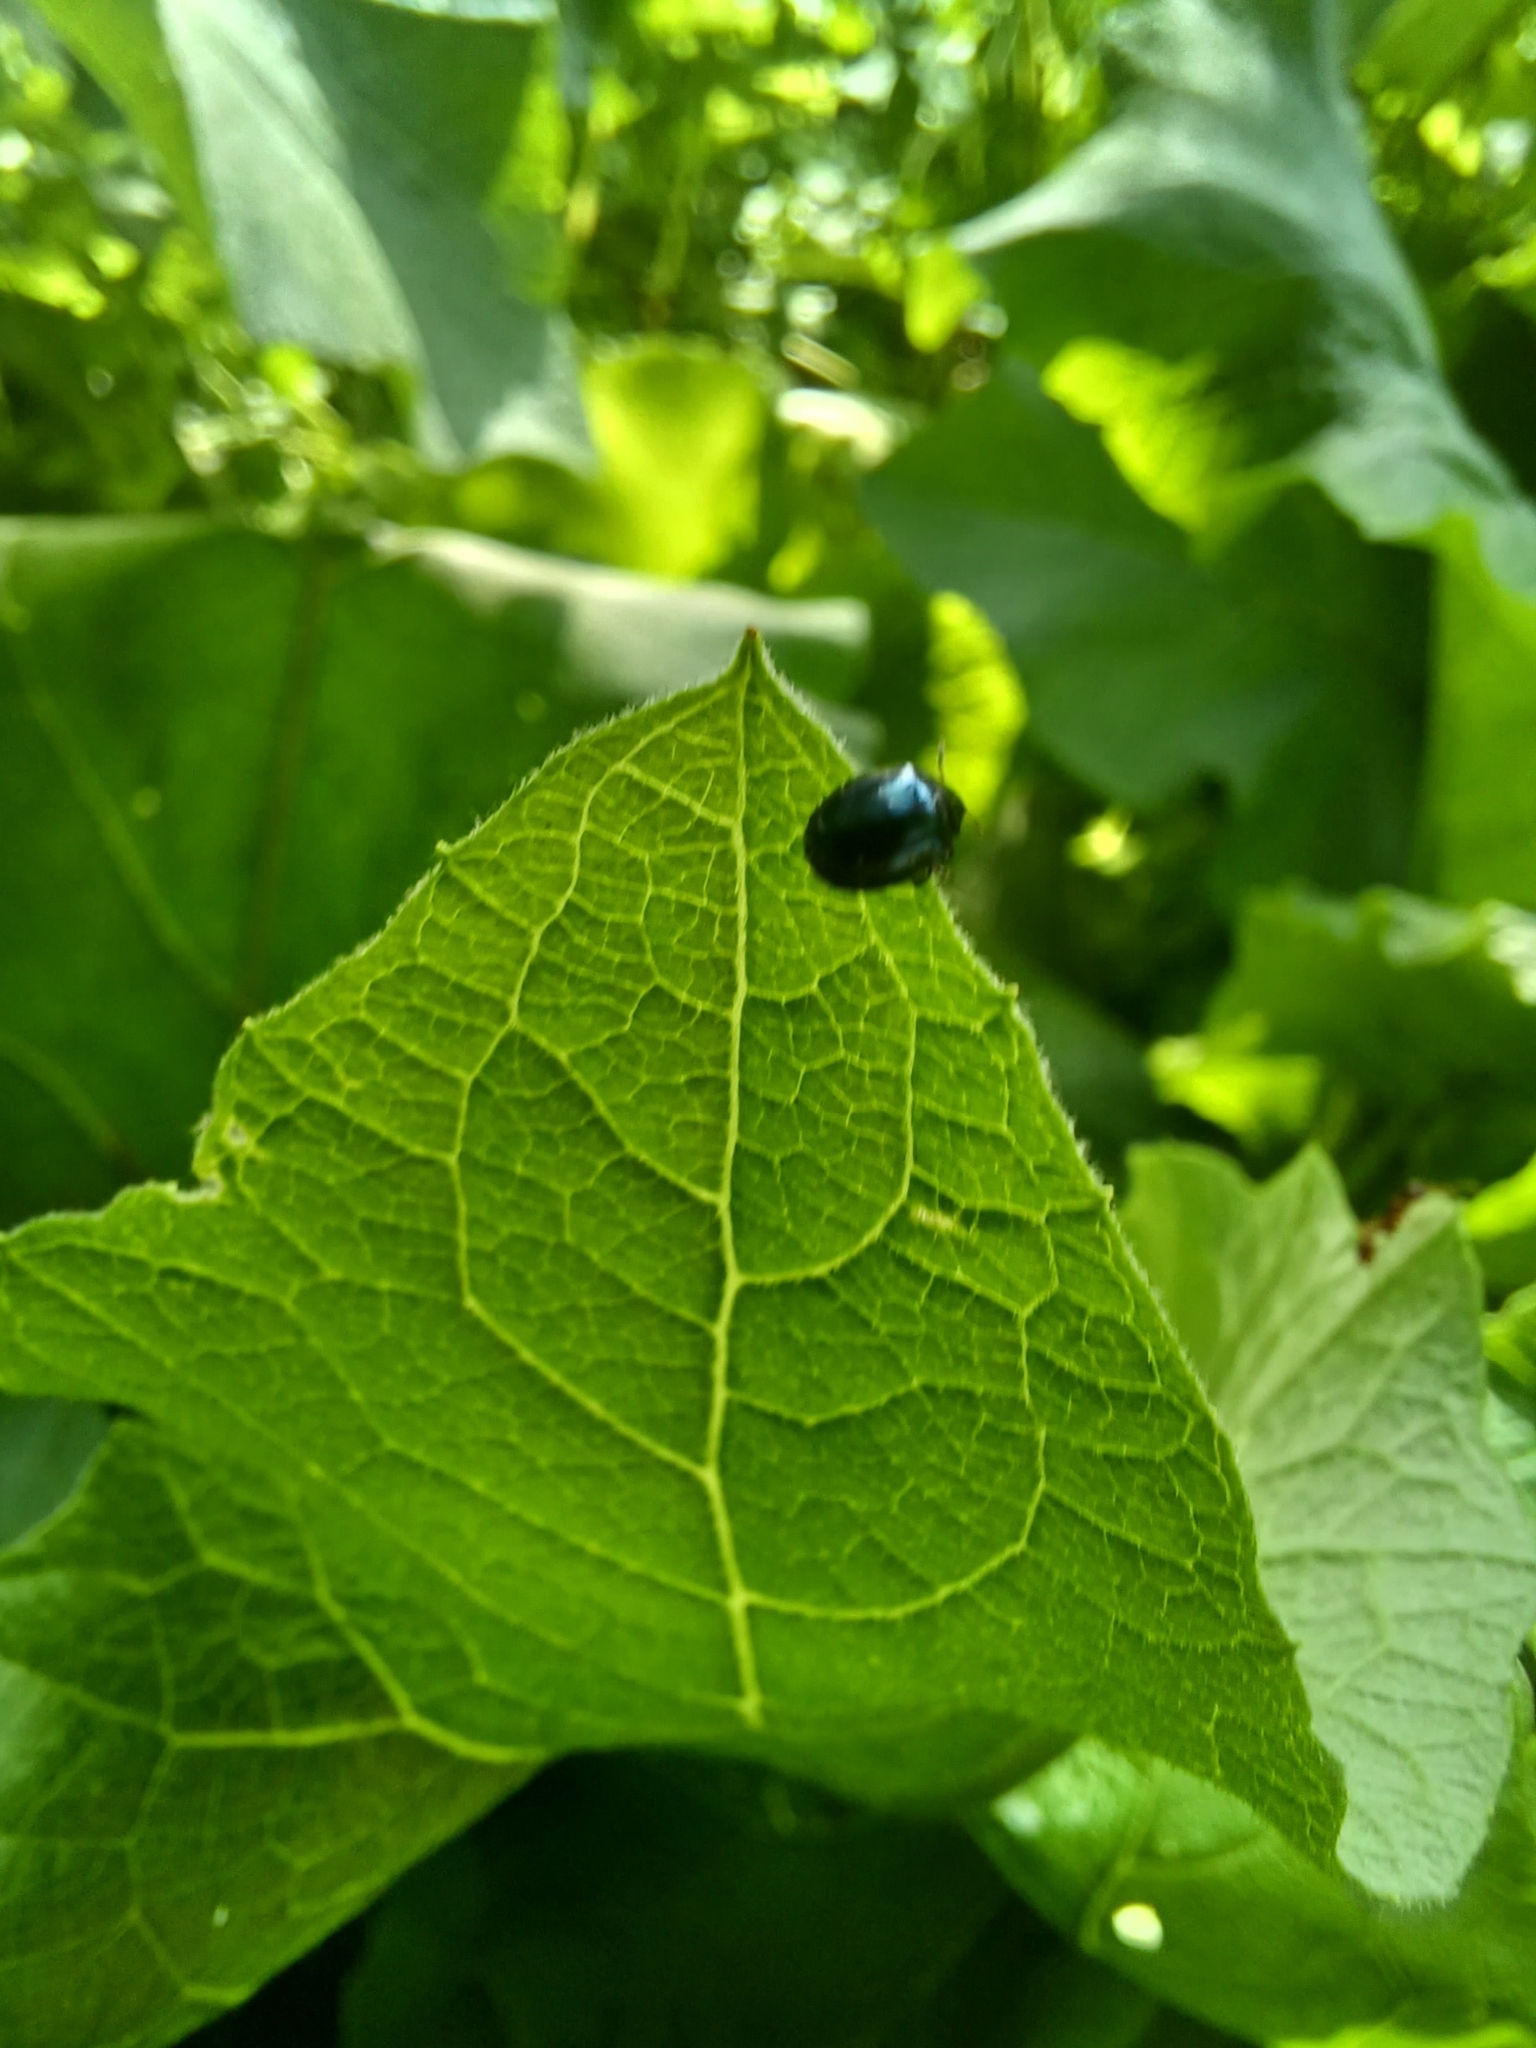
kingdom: Animalia
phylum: Arthropoda
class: Insecta
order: Coleoptera
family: Chrysomelidae
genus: Plagiodera
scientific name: Plagiodera versicolora
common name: Imported willow leaf beetle
